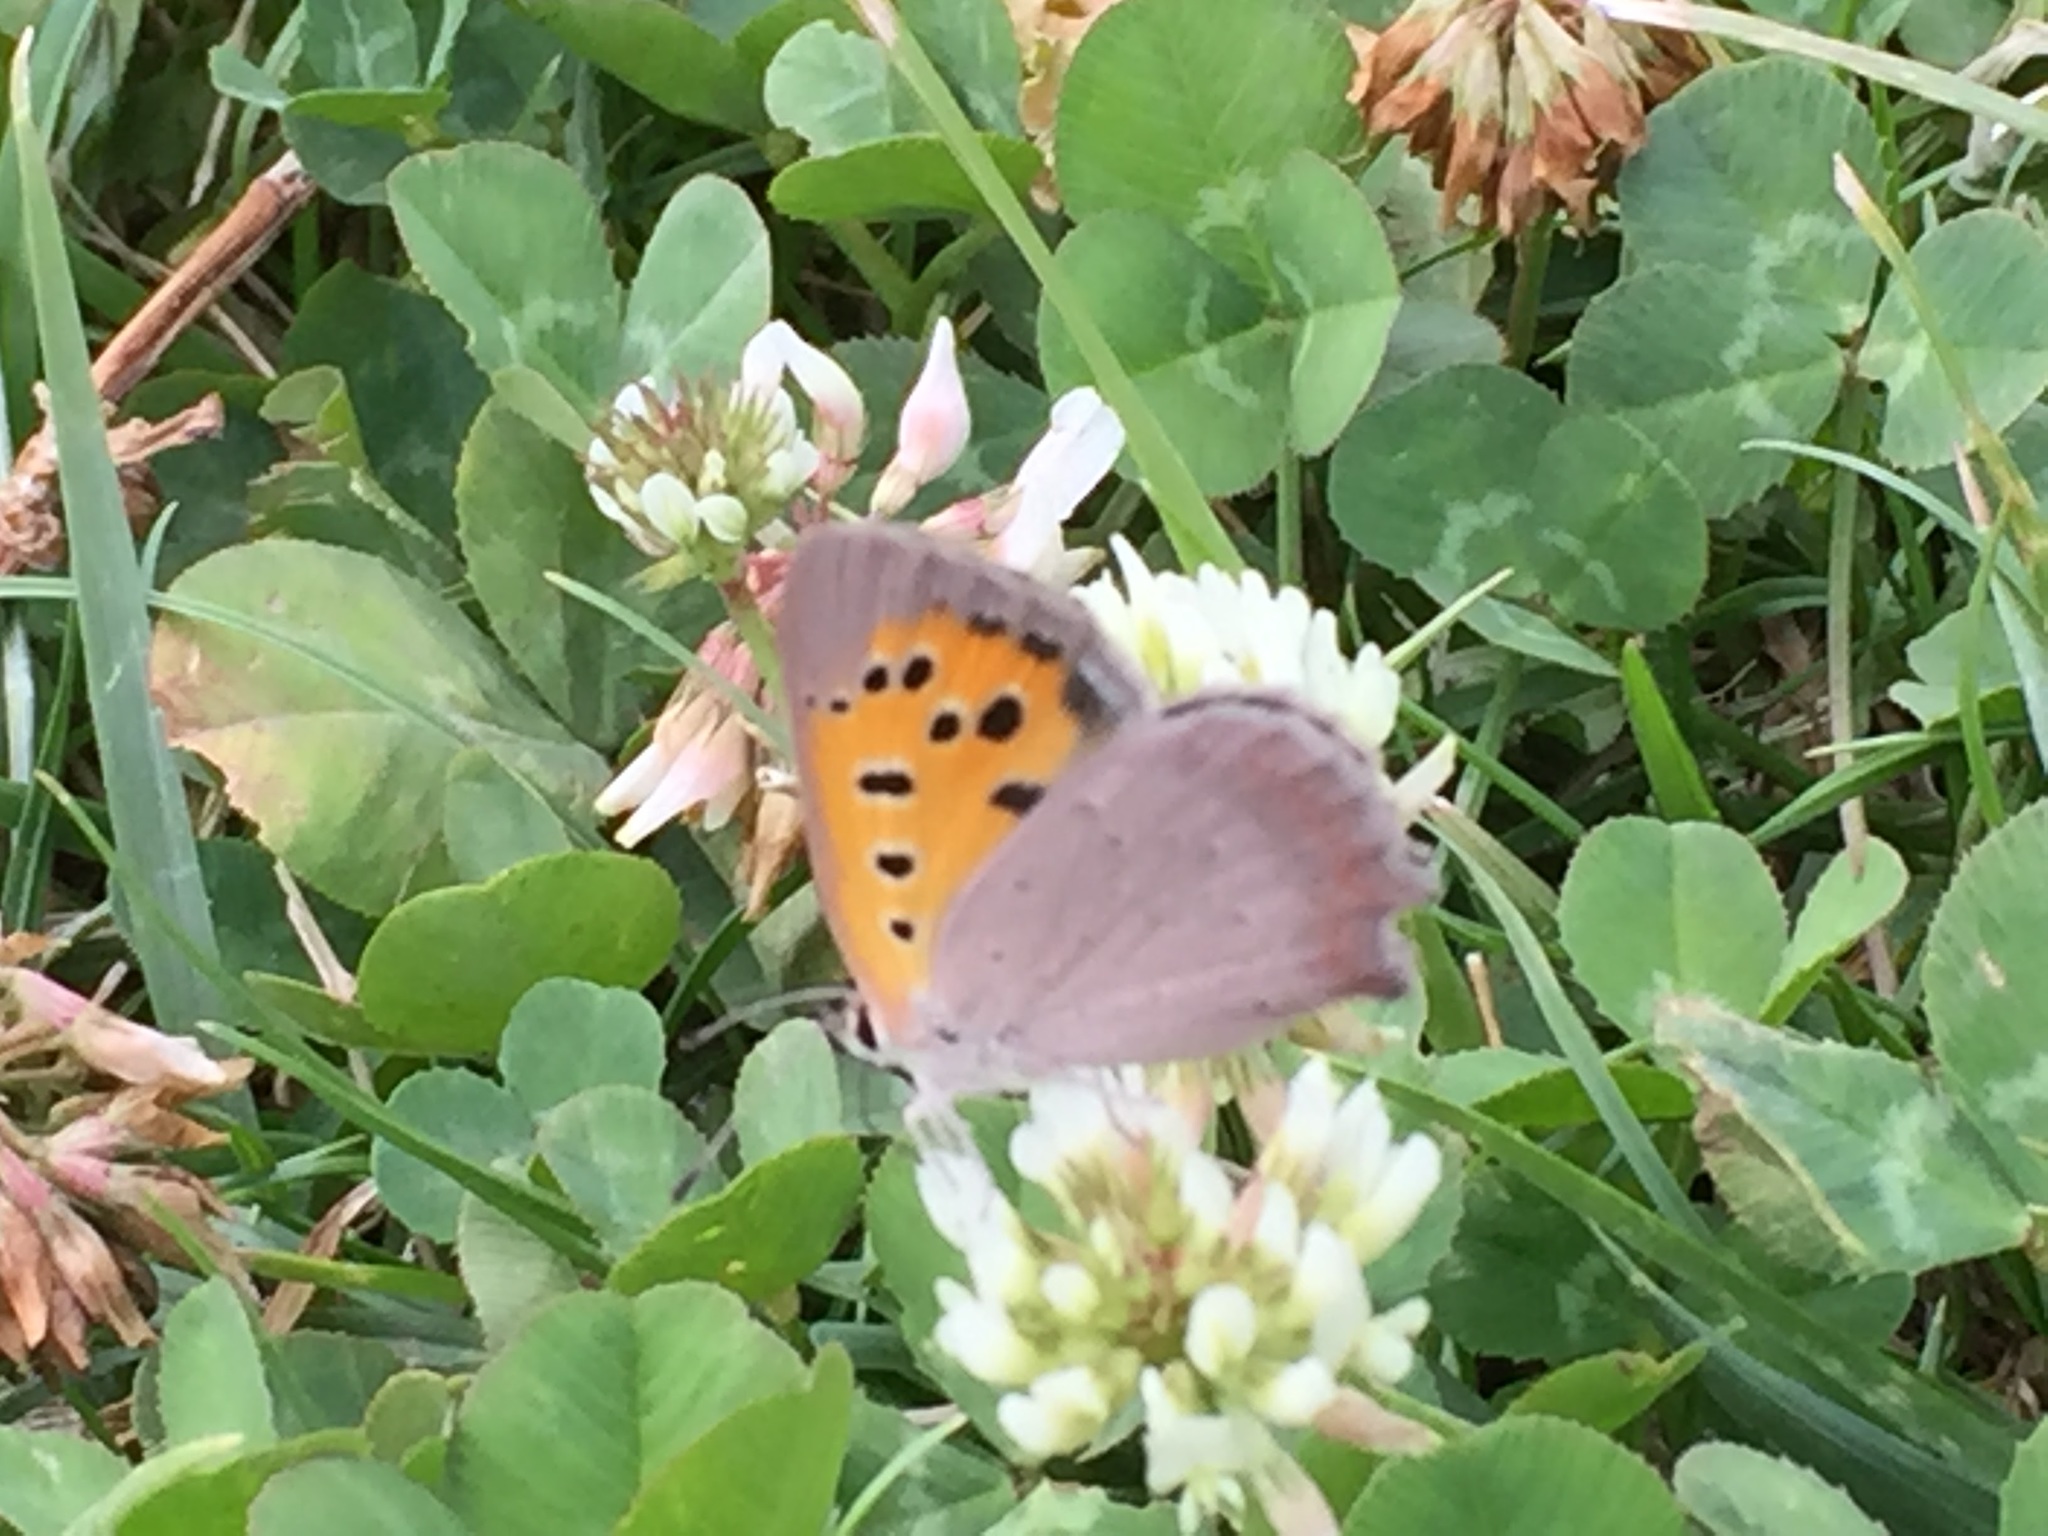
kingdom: Animalia
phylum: Arthropoda
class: Insecta
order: Lepidoptera
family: Lycaenidae
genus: Lycaena
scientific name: Lycaena phlaeas
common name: Small copper
